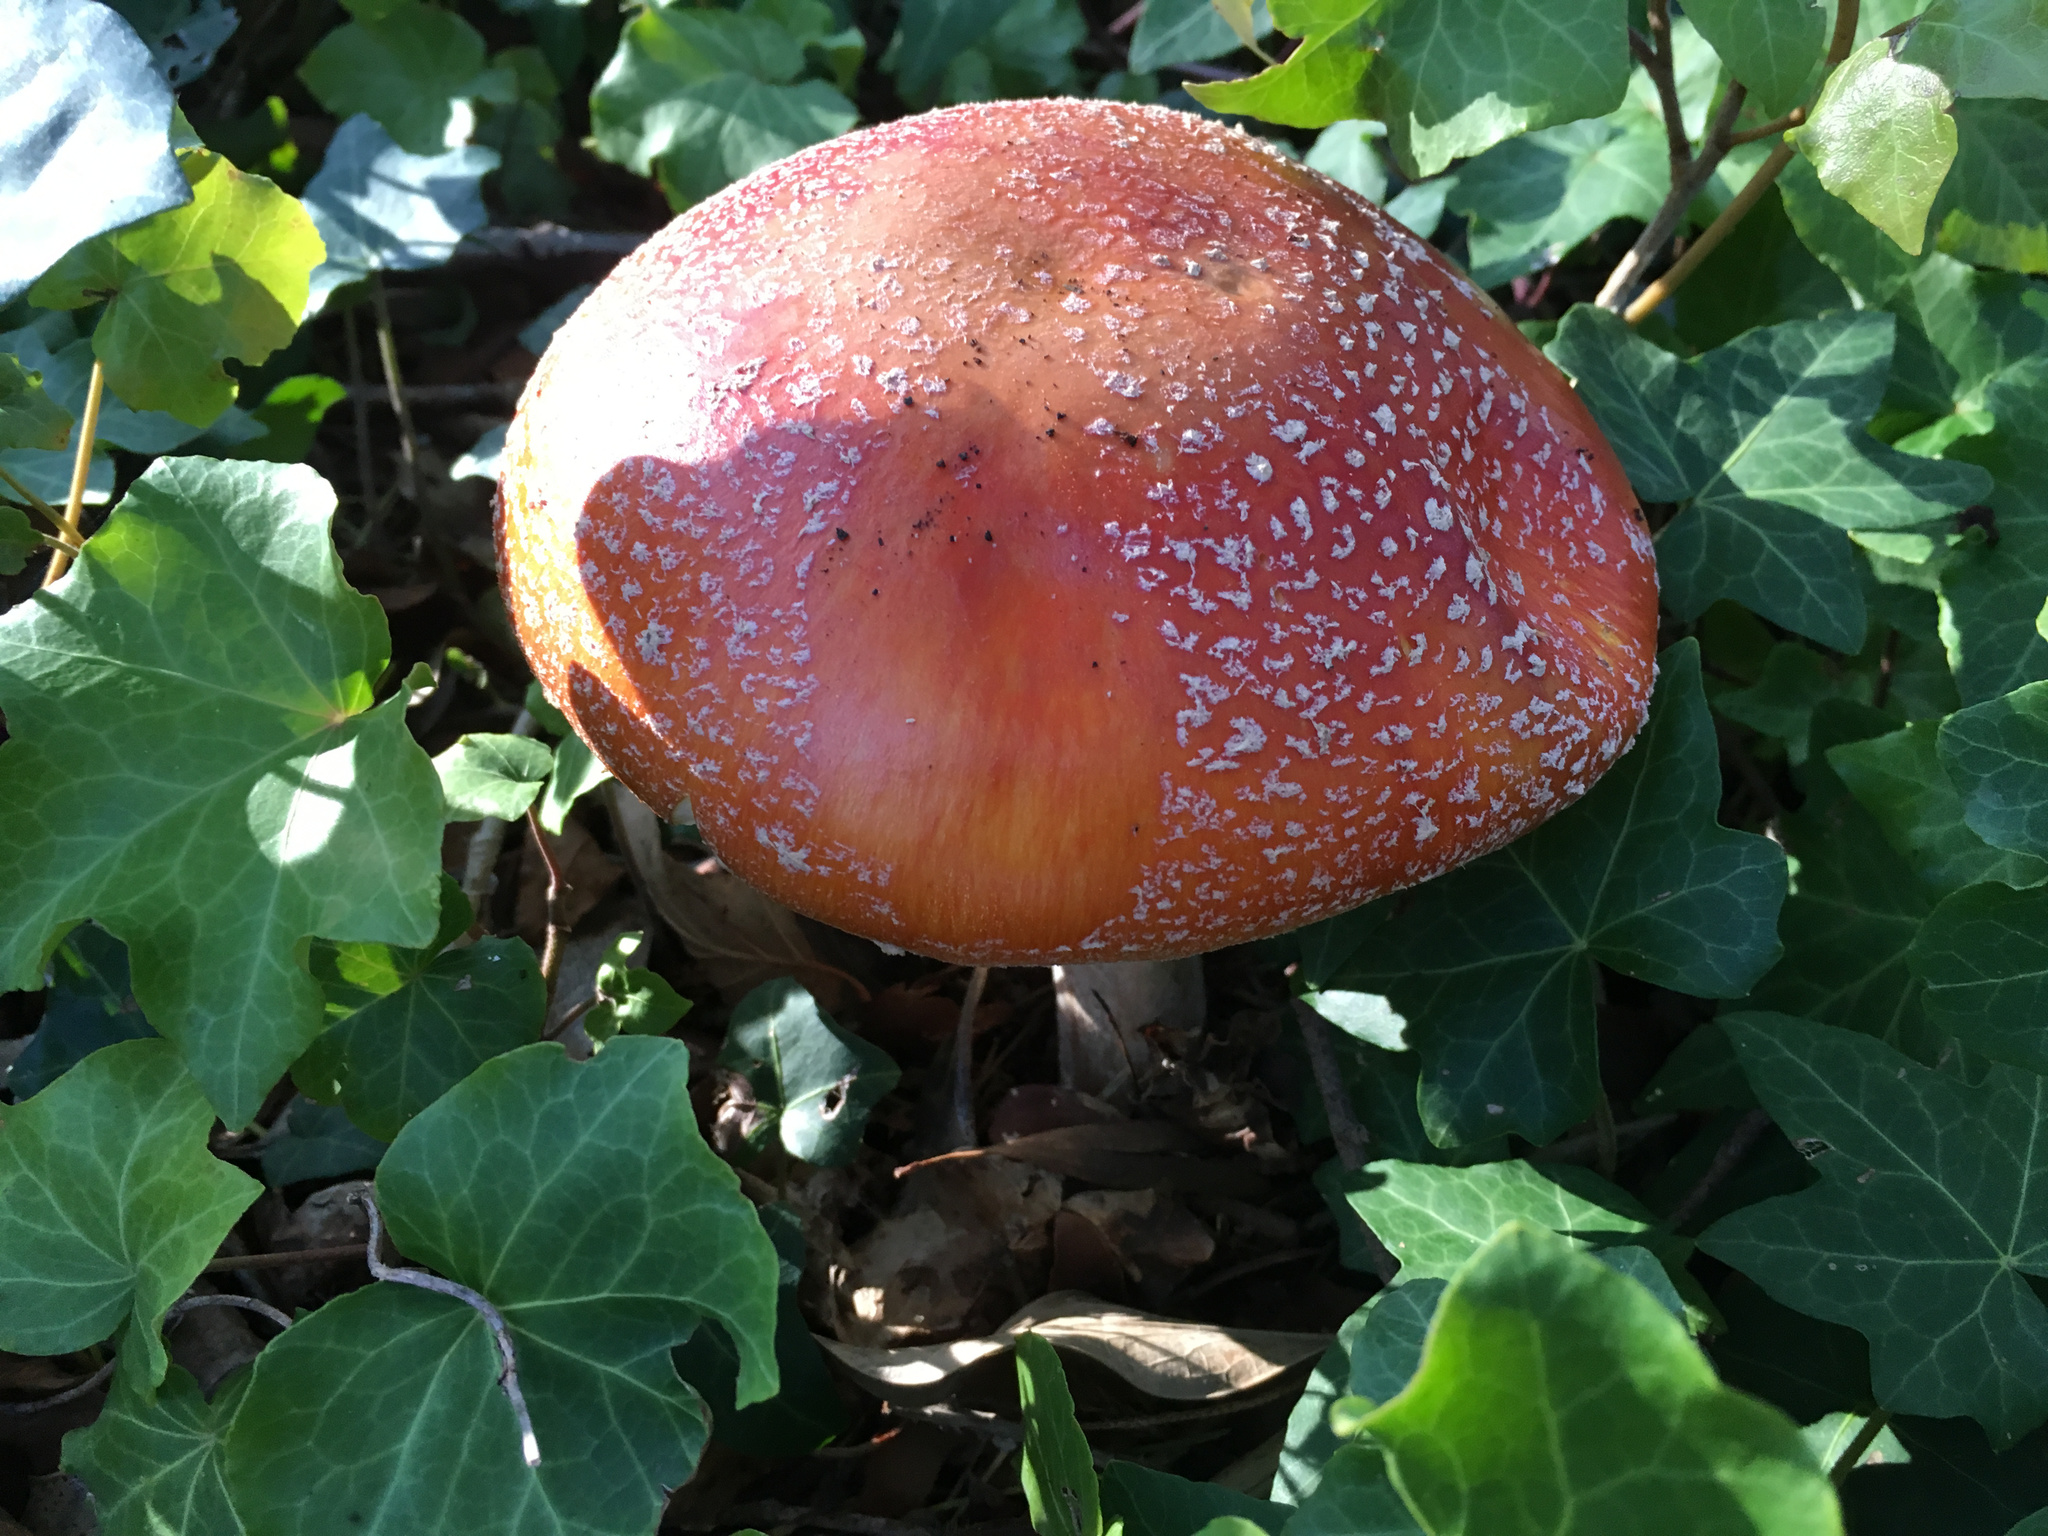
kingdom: Fungi
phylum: Basidiomycota
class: Agaricomycetes
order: Agaricales
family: Amanitaceae
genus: Amanita
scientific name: Amanita muscaria
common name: Fly agaric
